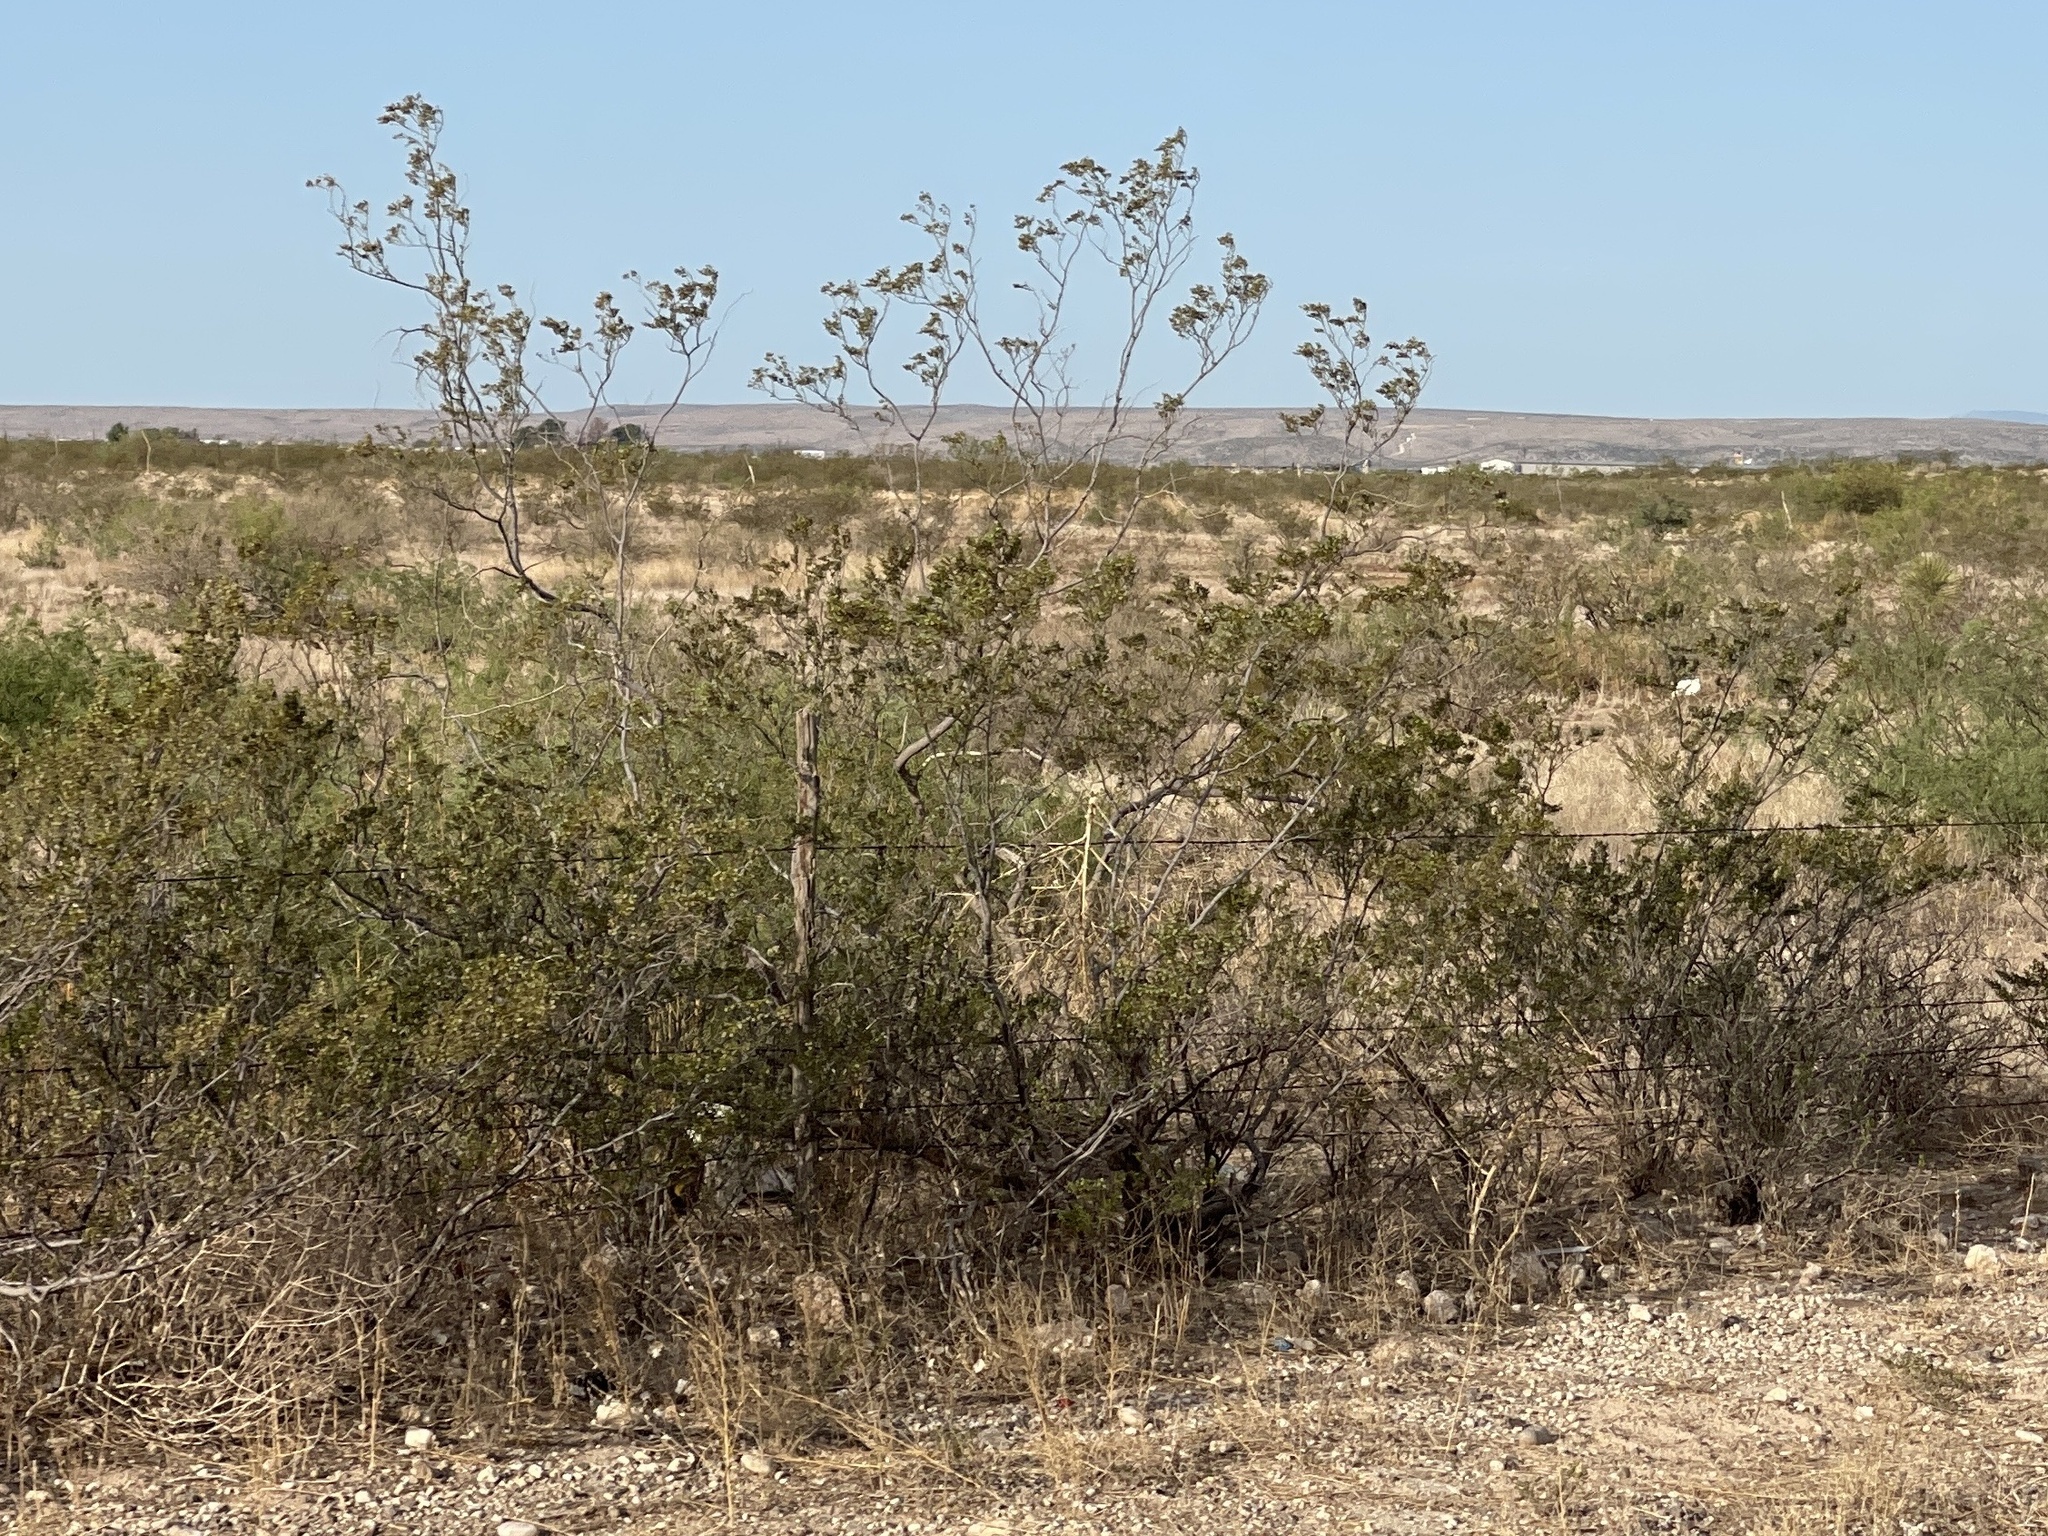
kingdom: Plantae
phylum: Tracheophyta
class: Magnoliopsida
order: Zygophyllales
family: Zygophyllaceae
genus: Larrea
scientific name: Larrea tridentata
